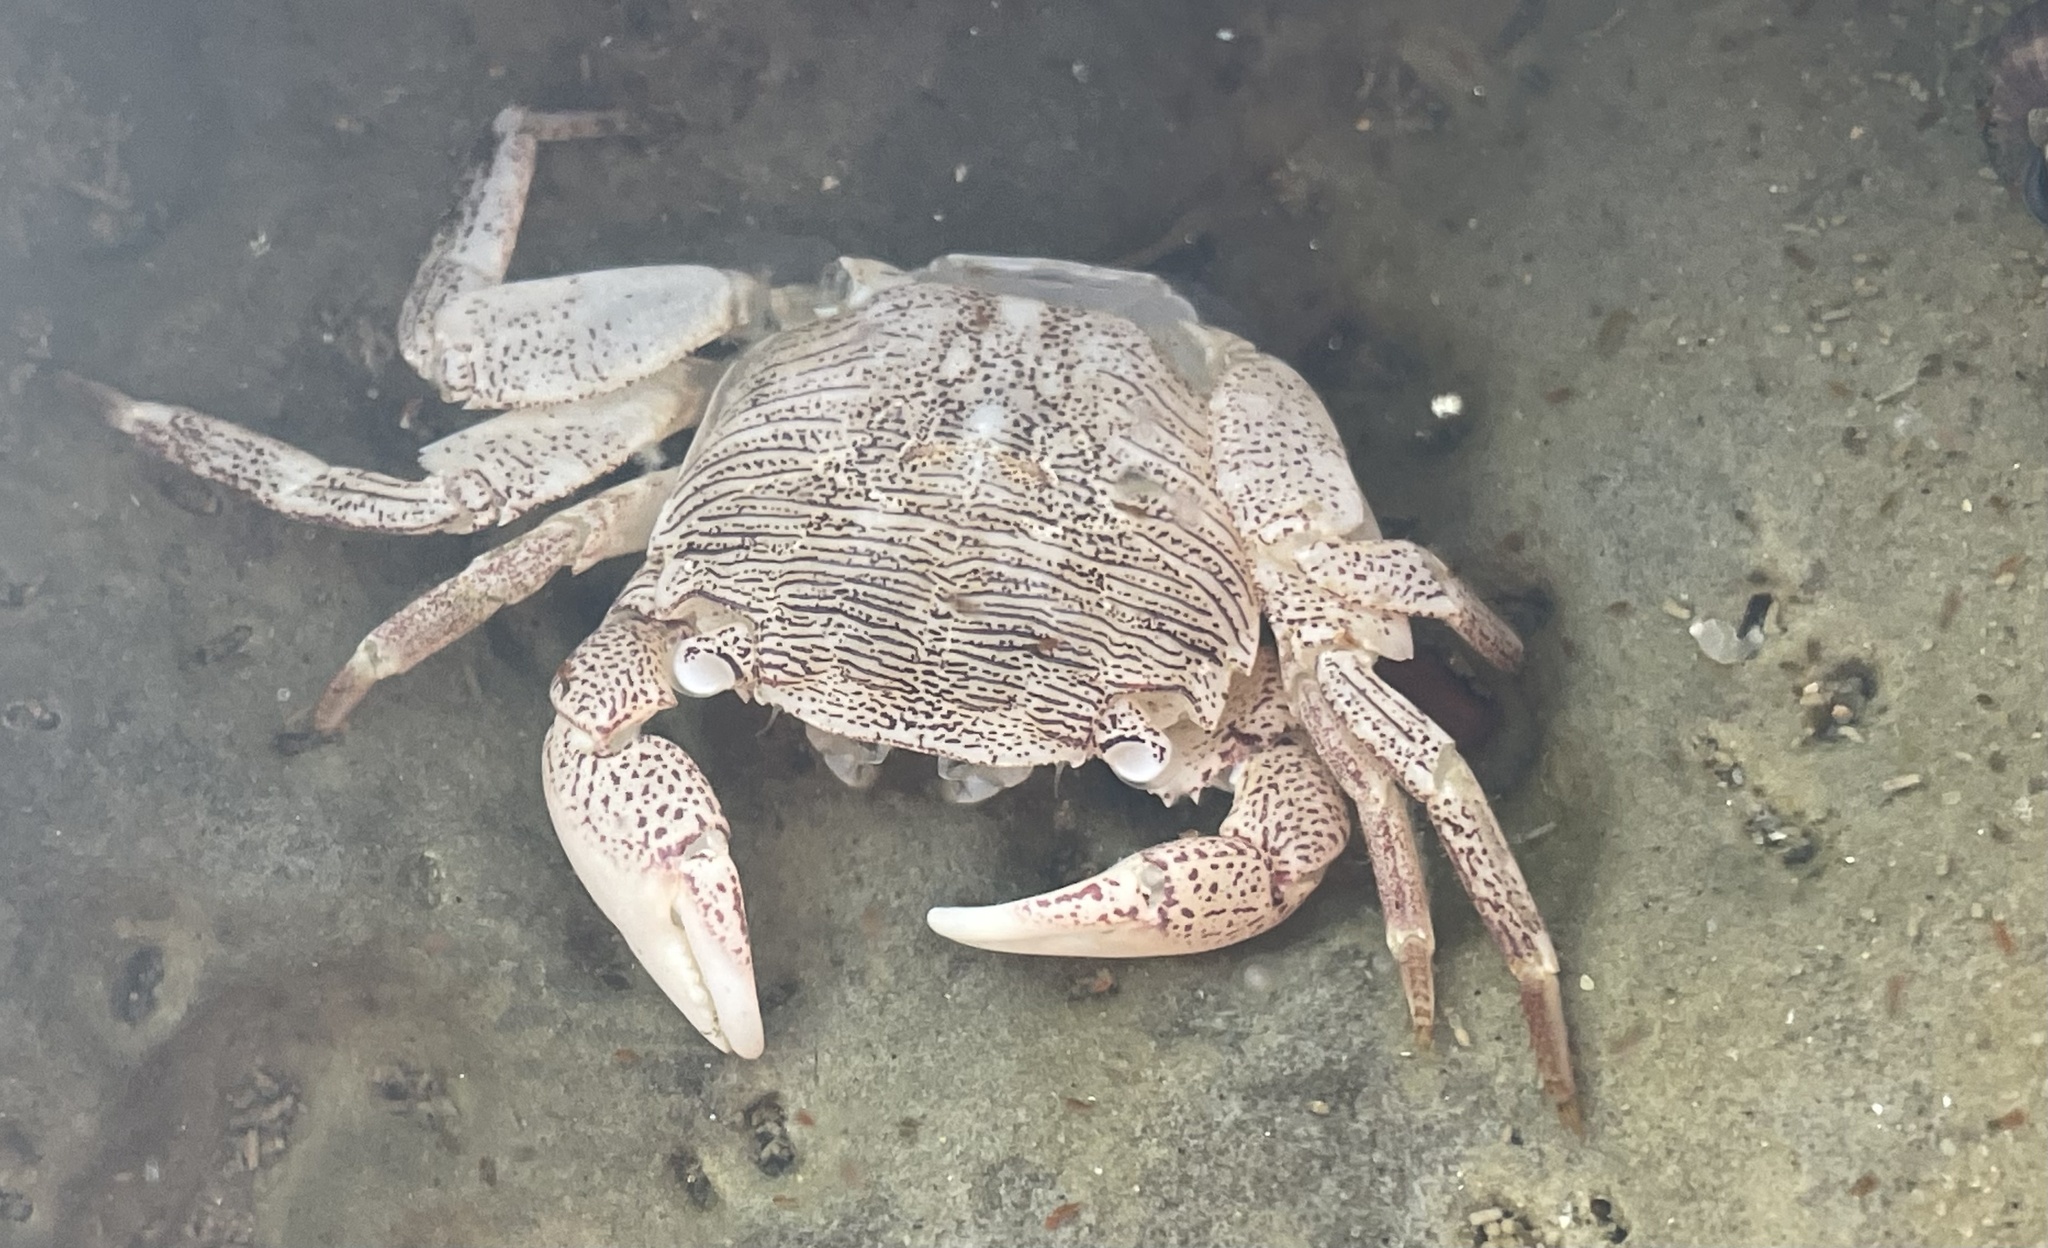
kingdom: Animalia
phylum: Arthropoda
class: Malacostraca
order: Decapoda
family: Grapsidae
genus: Pachygrapsus
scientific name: Pachygrapsus crassipes
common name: Striped shore crab
